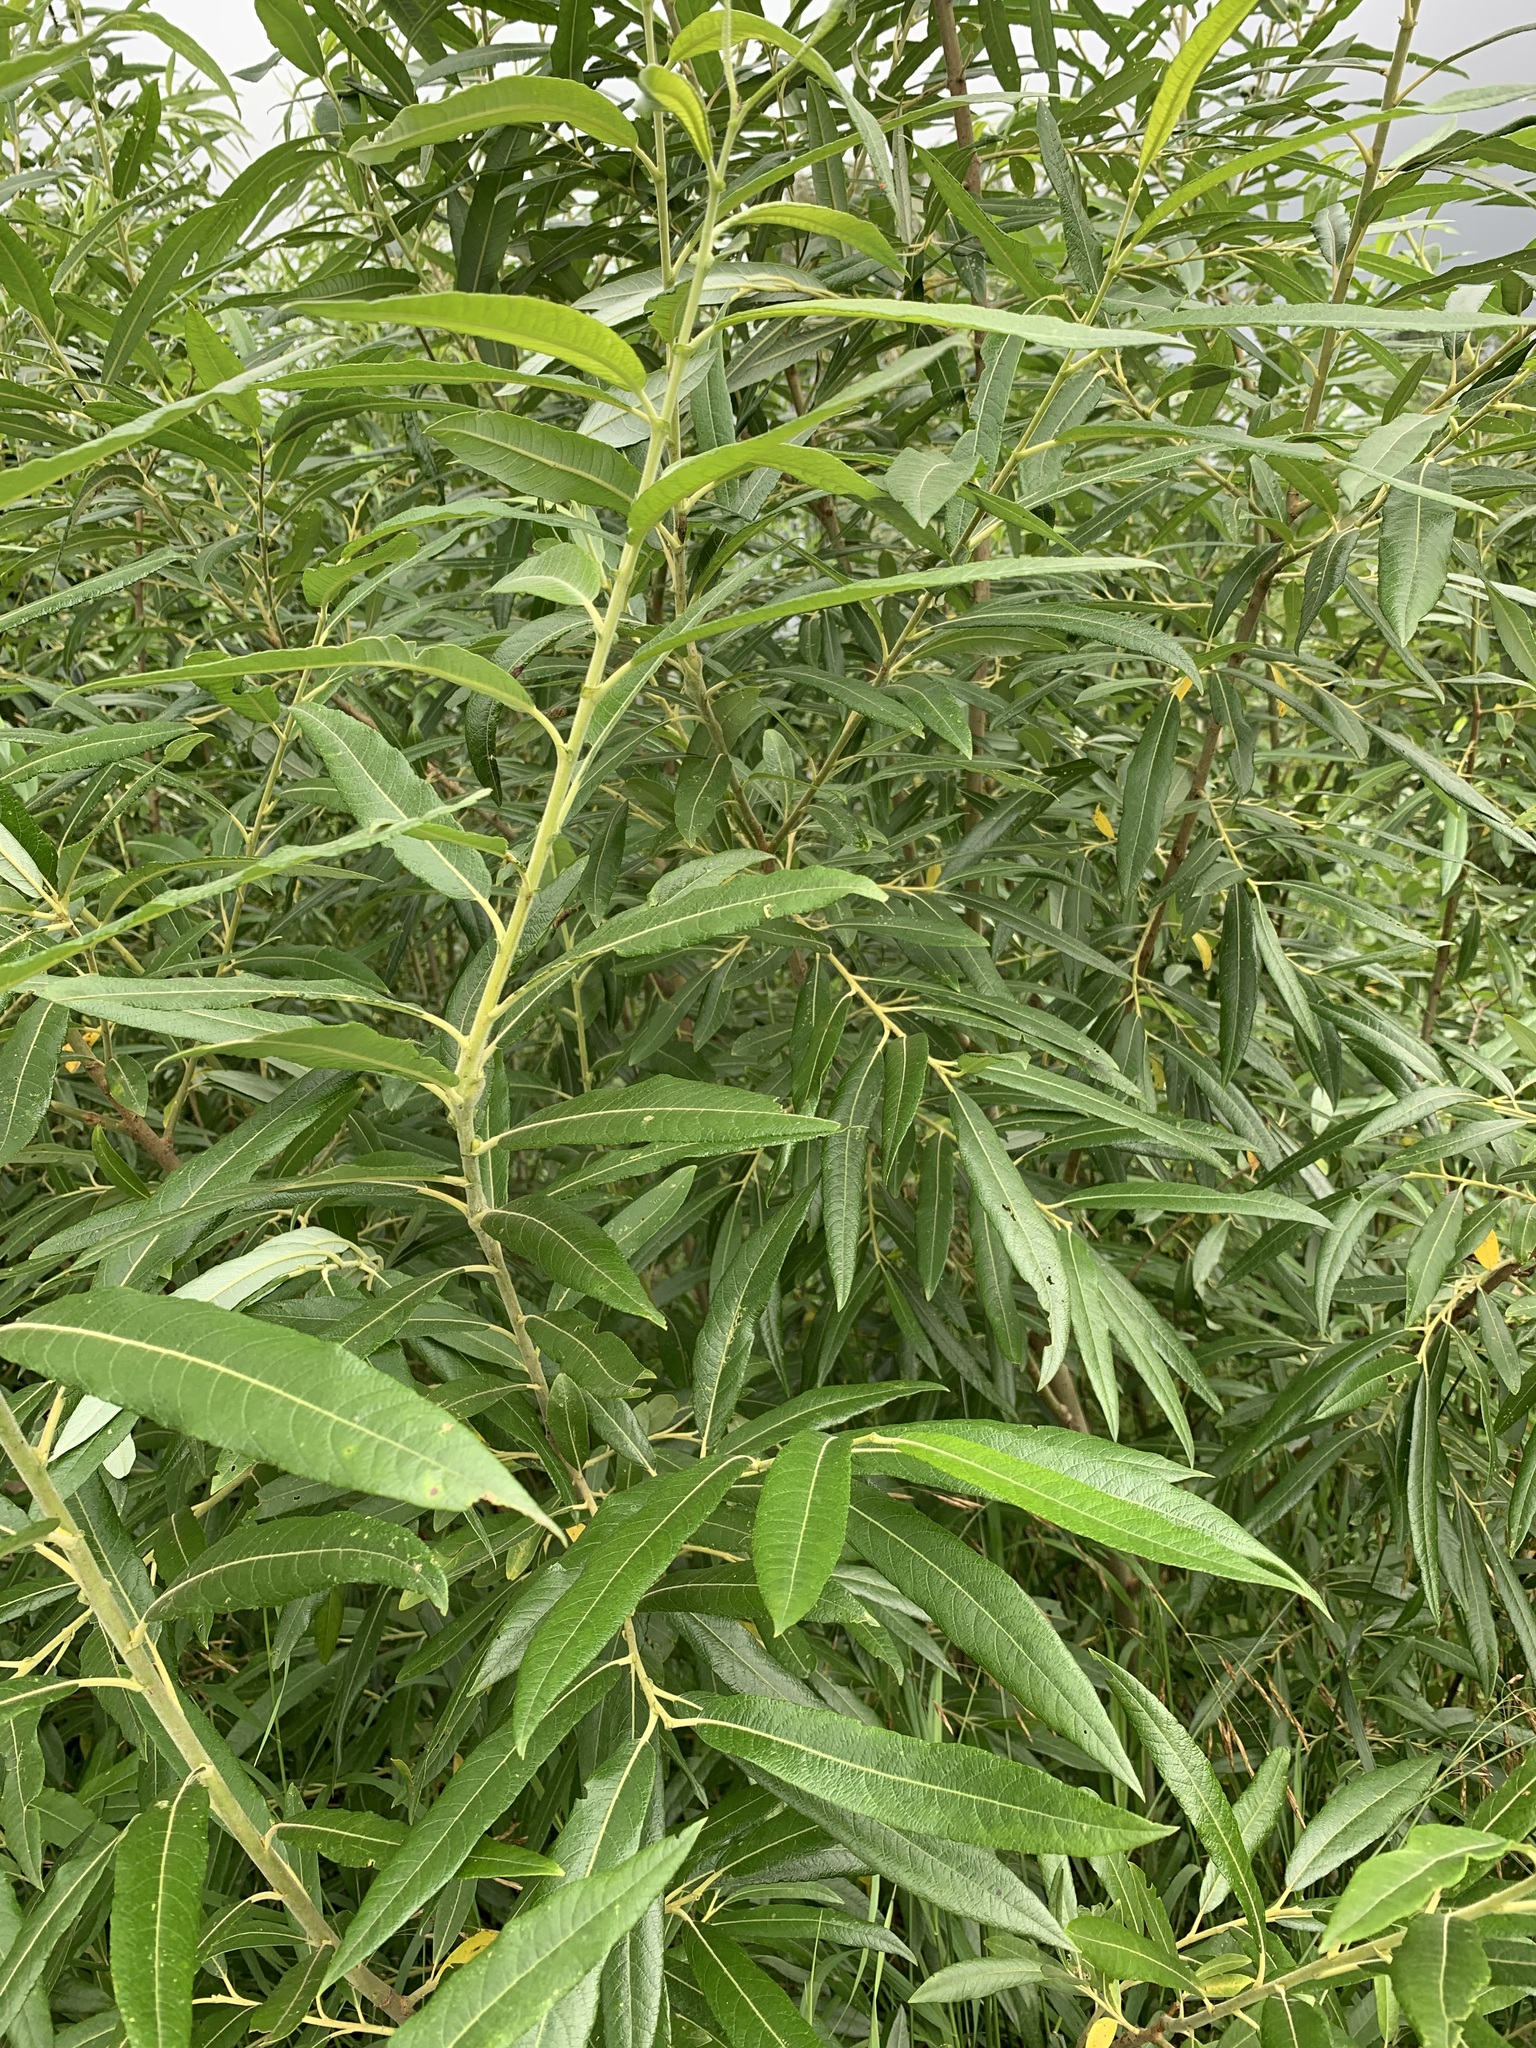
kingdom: Plantae
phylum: Tracheophyta
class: Magnoliopsida
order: Malpighiales
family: Salicaceae
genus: Salix
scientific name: Salix gmelinii
